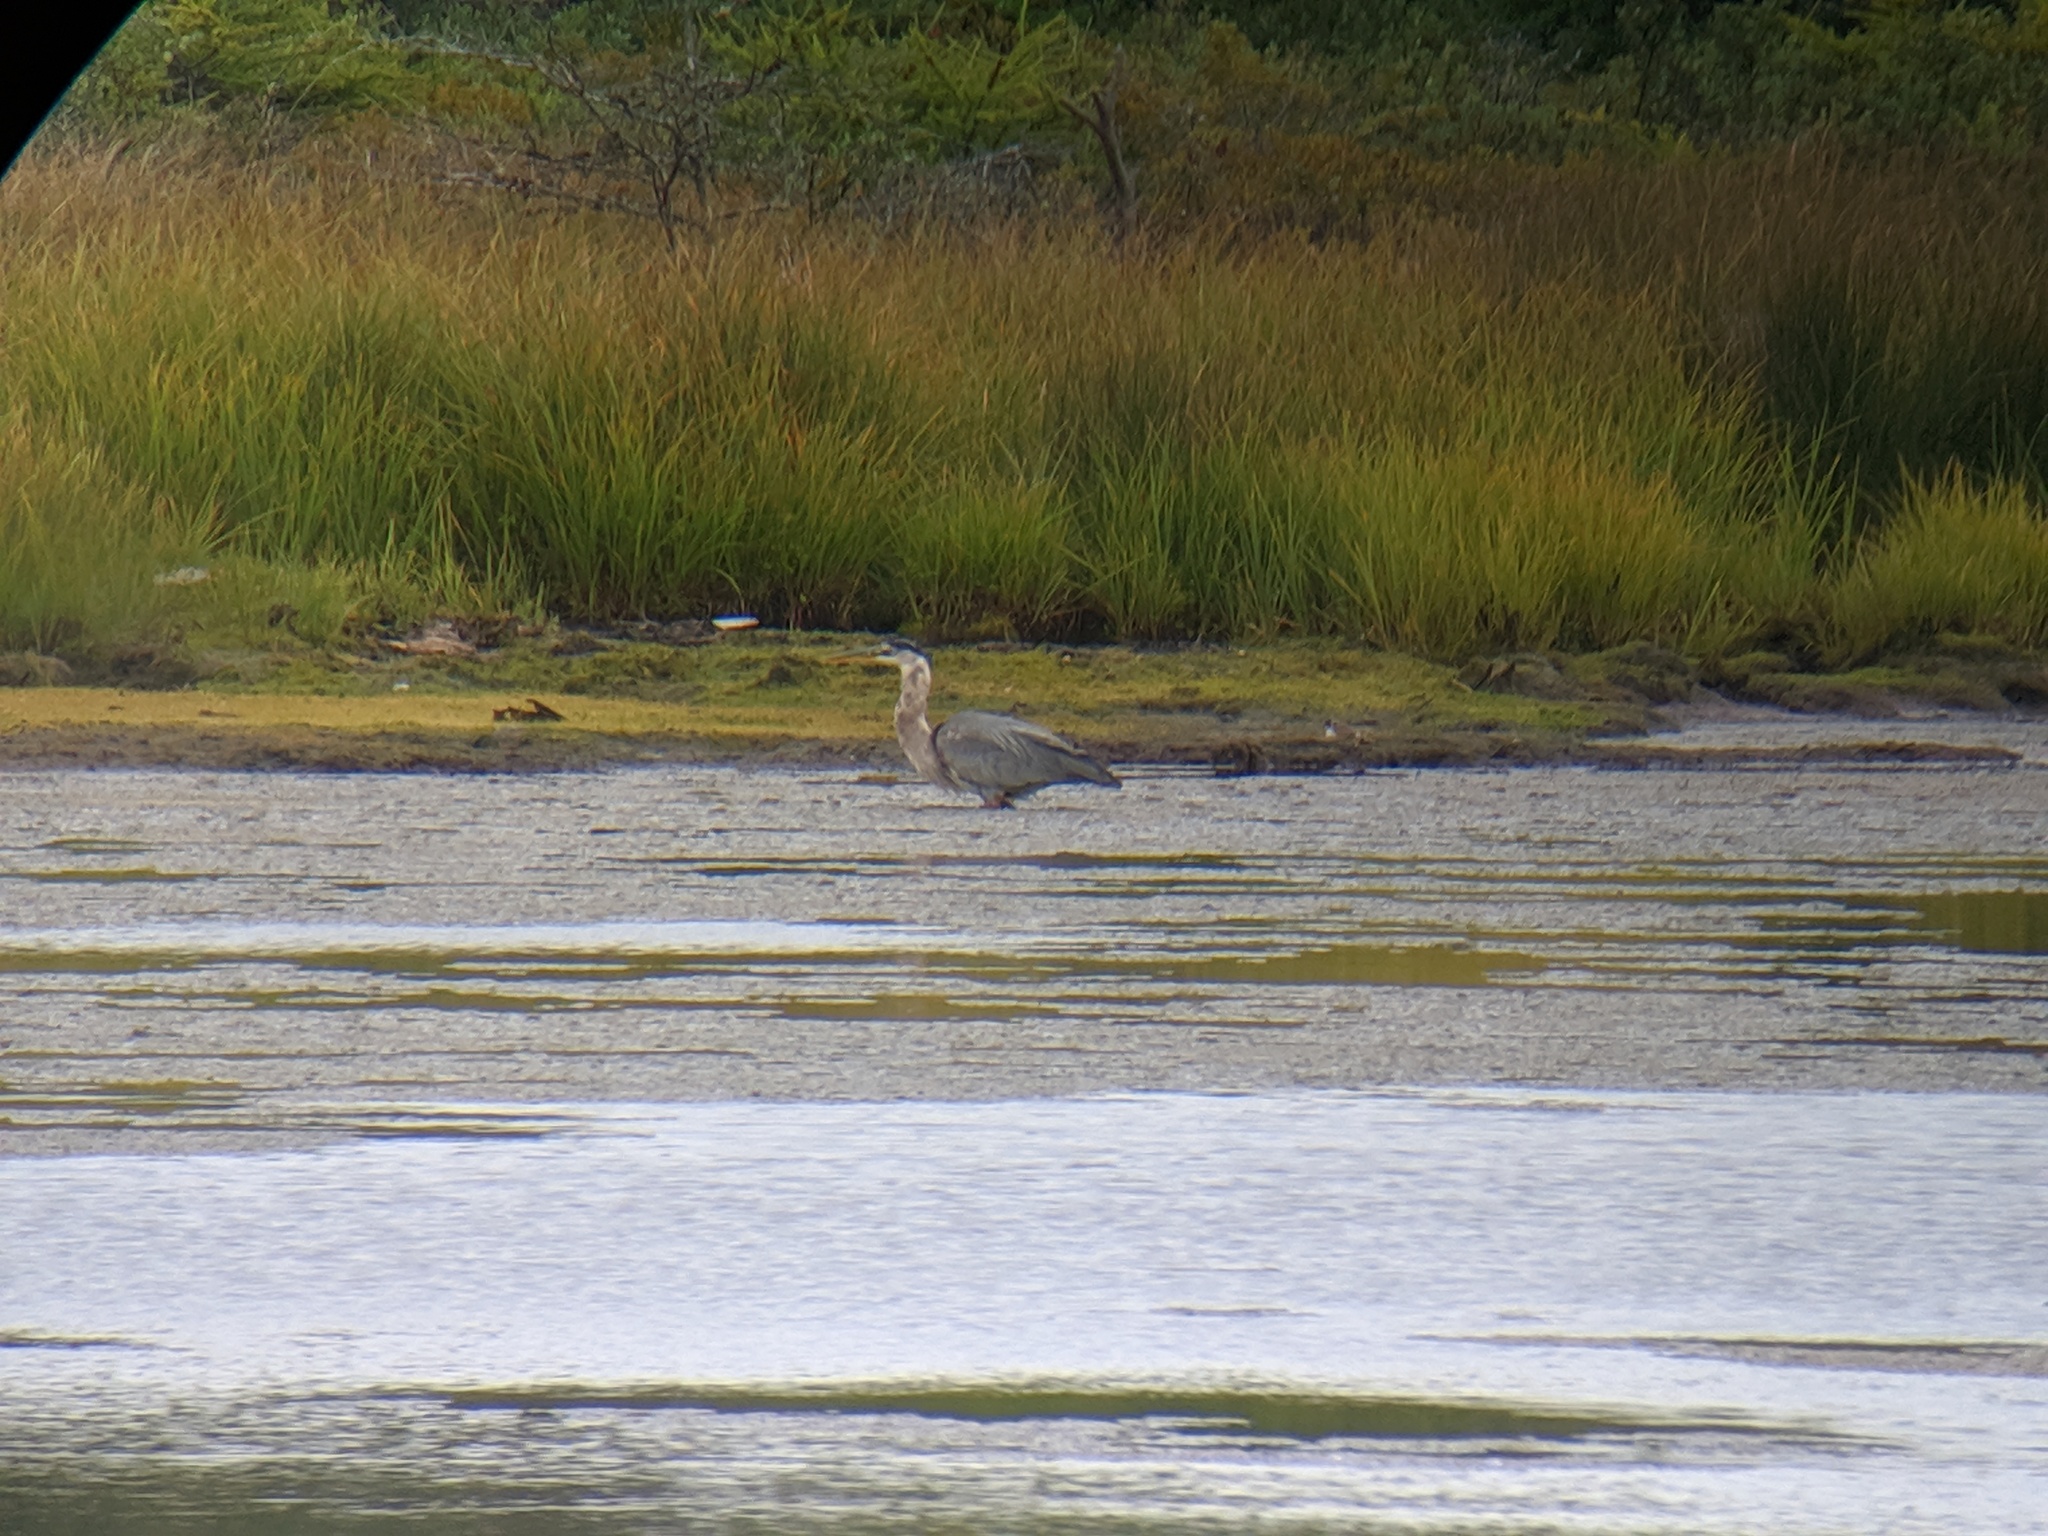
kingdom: Animalia
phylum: Chordata
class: Aves
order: Pelecaniformes
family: Ardeidae
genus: Ardea
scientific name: Ardea herodias
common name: Great blue heron
